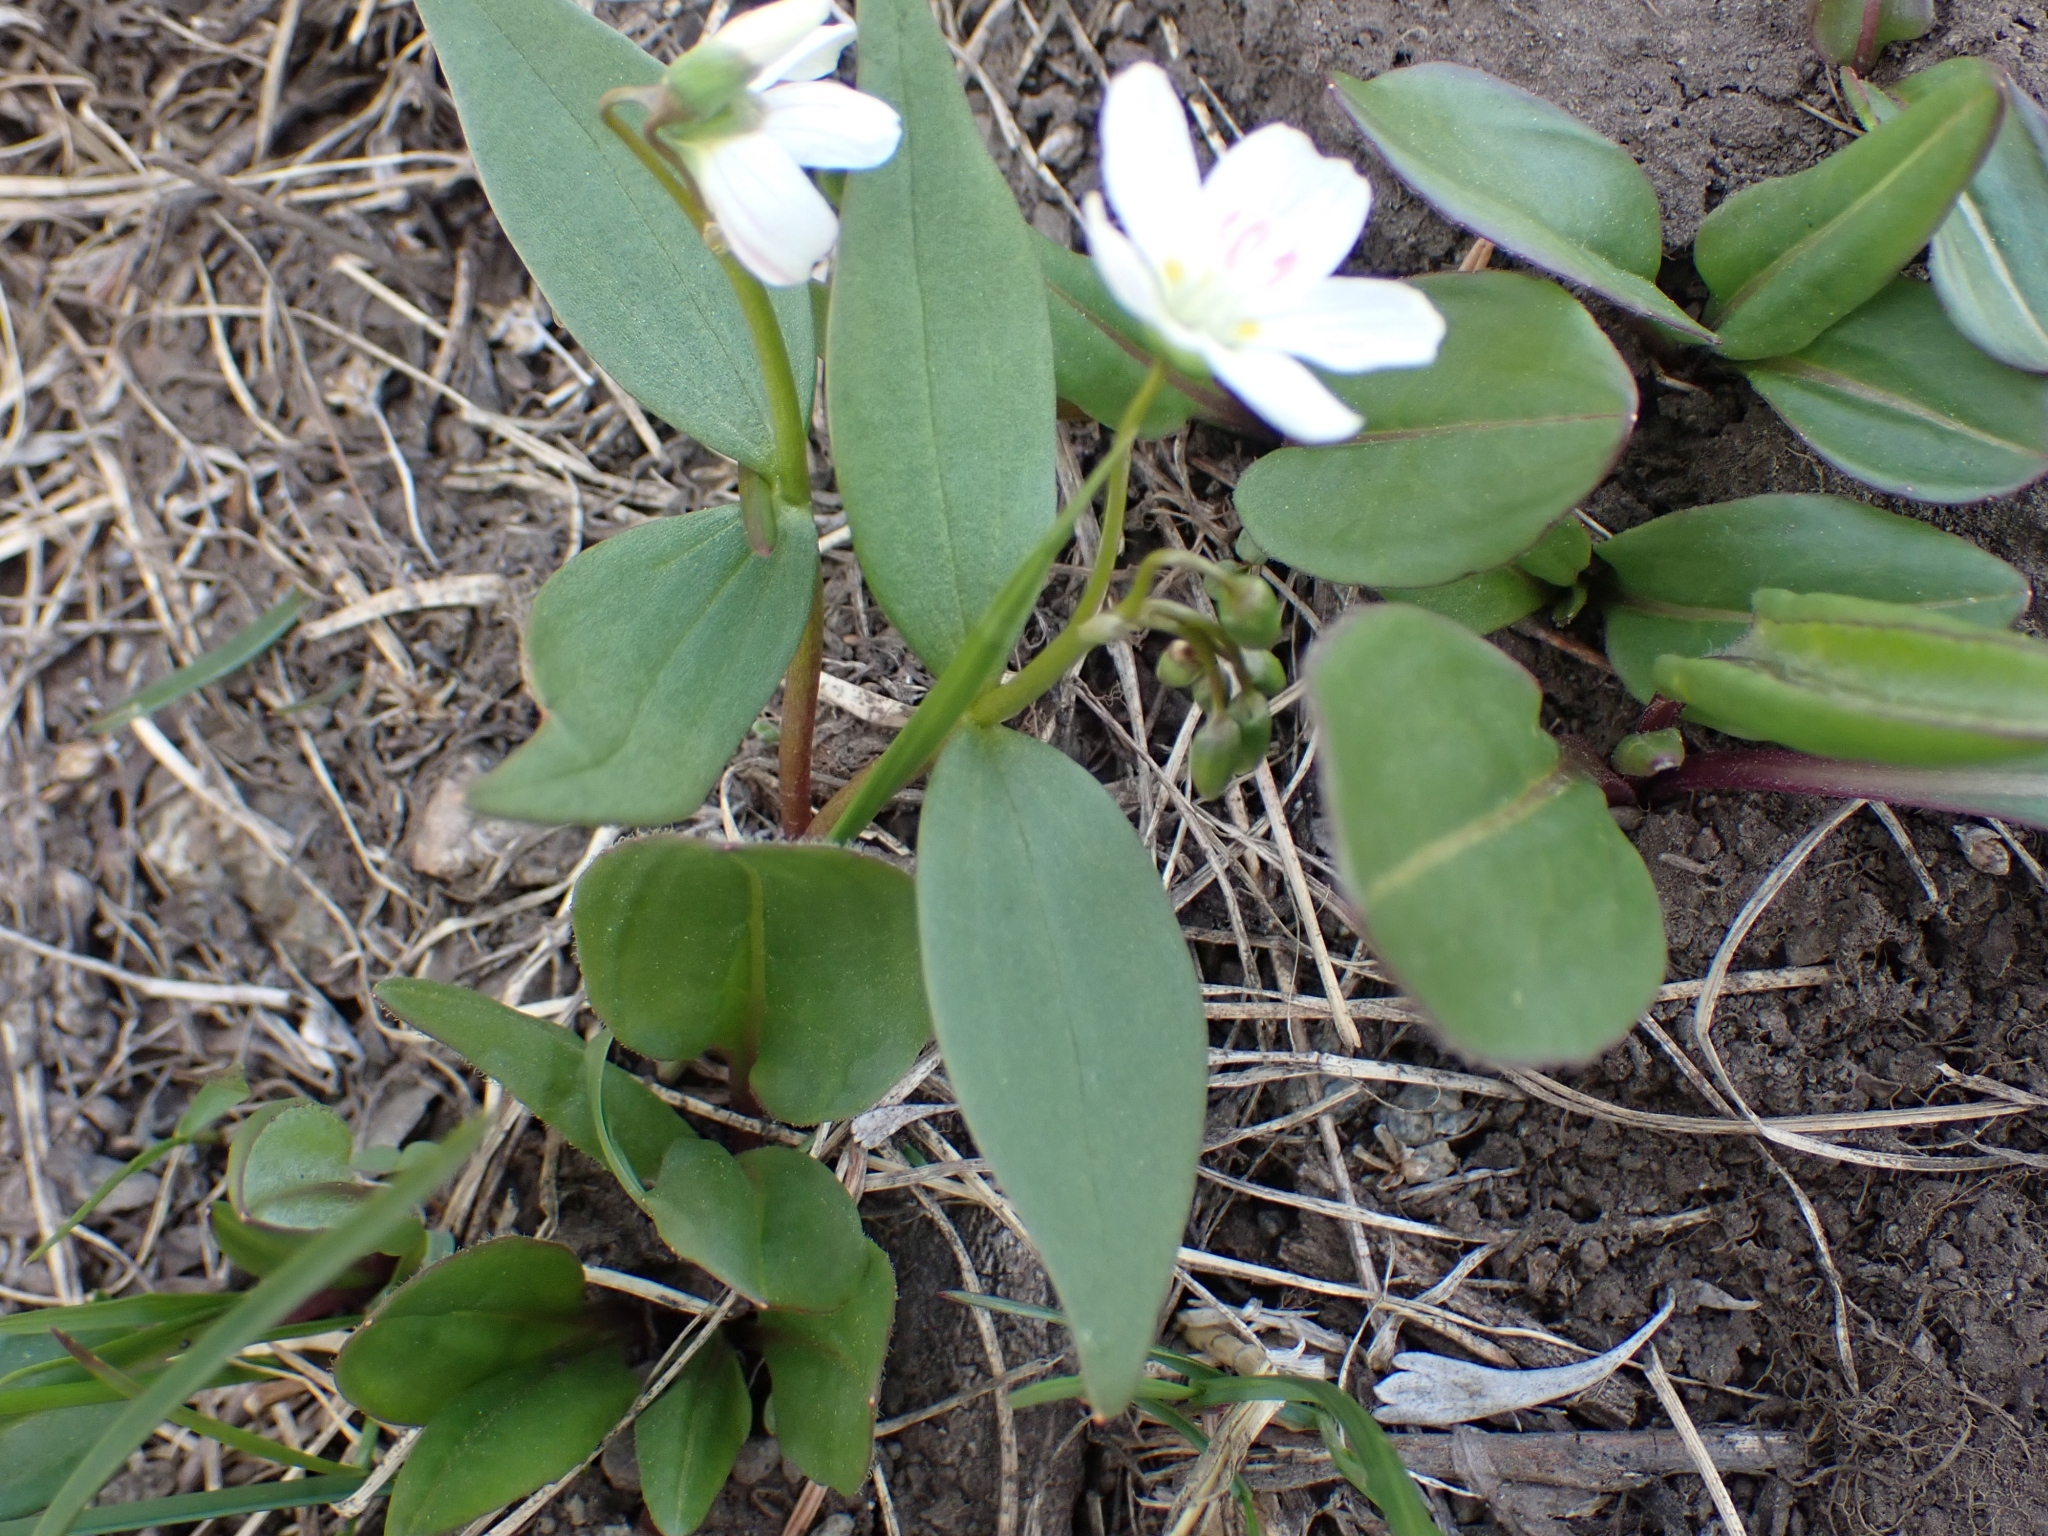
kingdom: Plantae
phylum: Tracheophyta
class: Magnoliopsida
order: Caryophyllales
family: Montiaceae
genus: Claytonia
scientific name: Claytonia lanceolata
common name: Western spring-beauty
